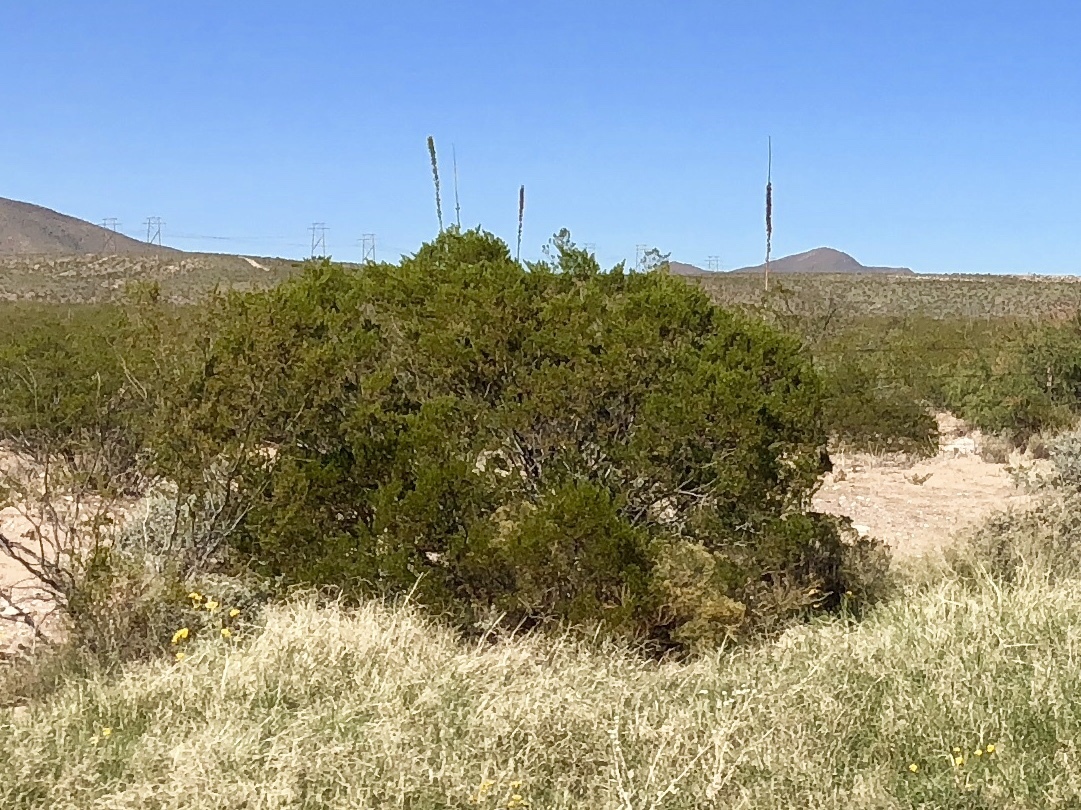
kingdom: Plantae
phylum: Tracheophyta
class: Magnoliopsida
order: Zygophyllales
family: Zygophyllaceae
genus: Larrea
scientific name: Larrea tridentata
